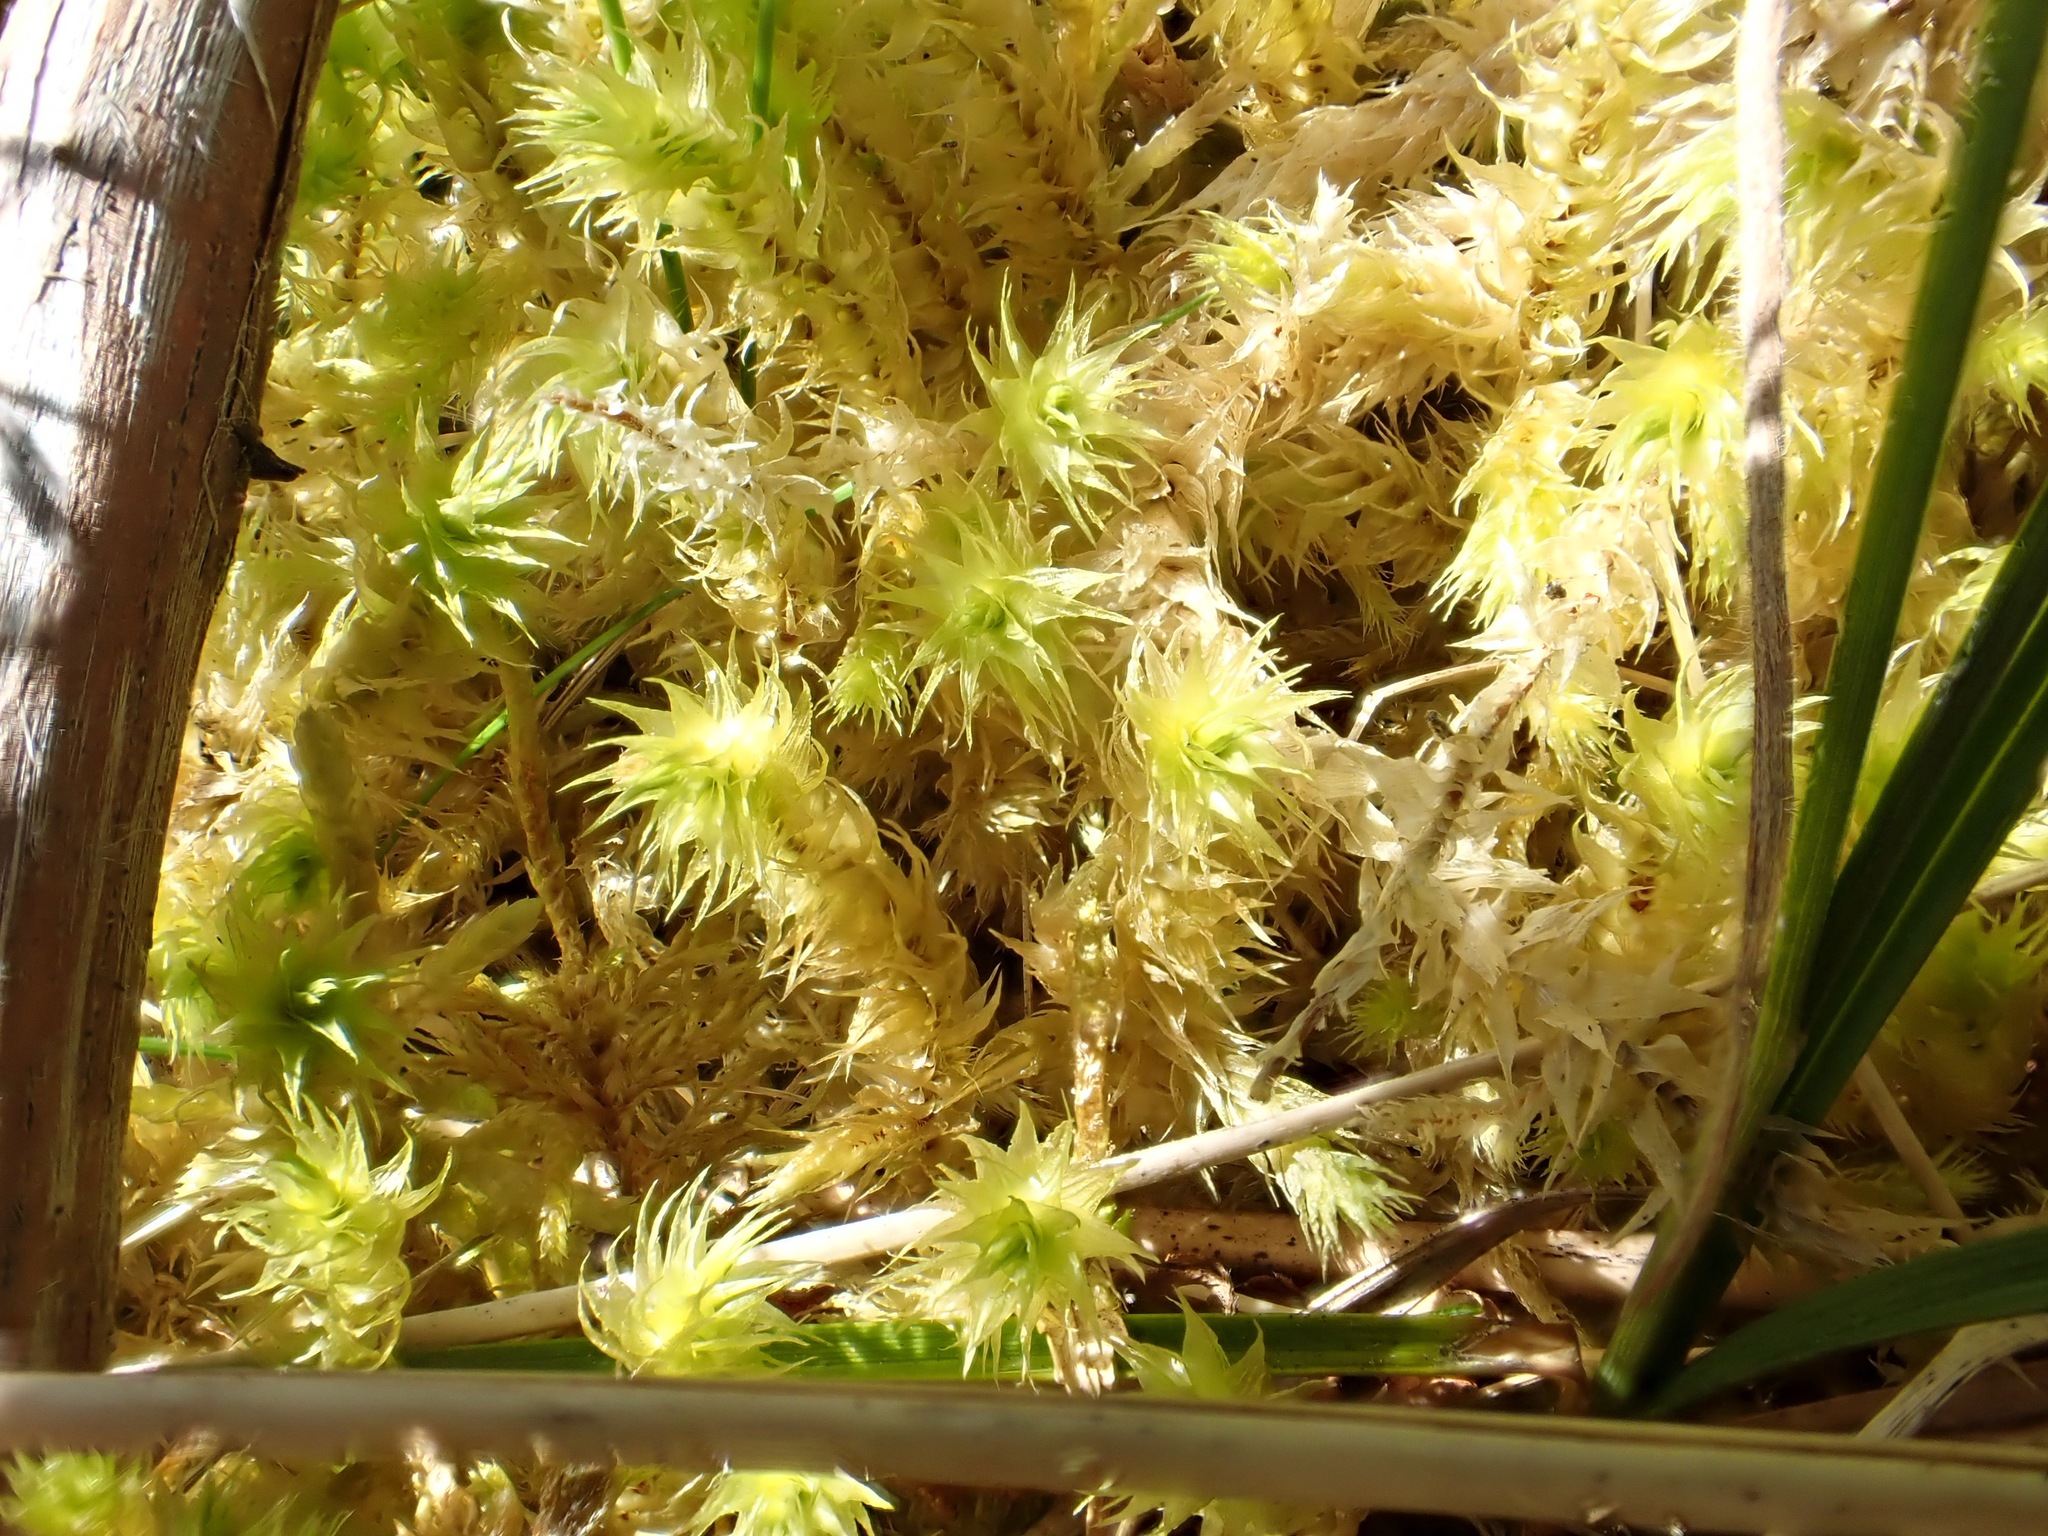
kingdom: Plantae
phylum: Bryophyta
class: Bryopsida
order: Hypnales
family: Hylocomiaceae
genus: Hylocomiadelphus
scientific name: Hylocomiadelphus triquetrus
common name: Rough goose neck moss
